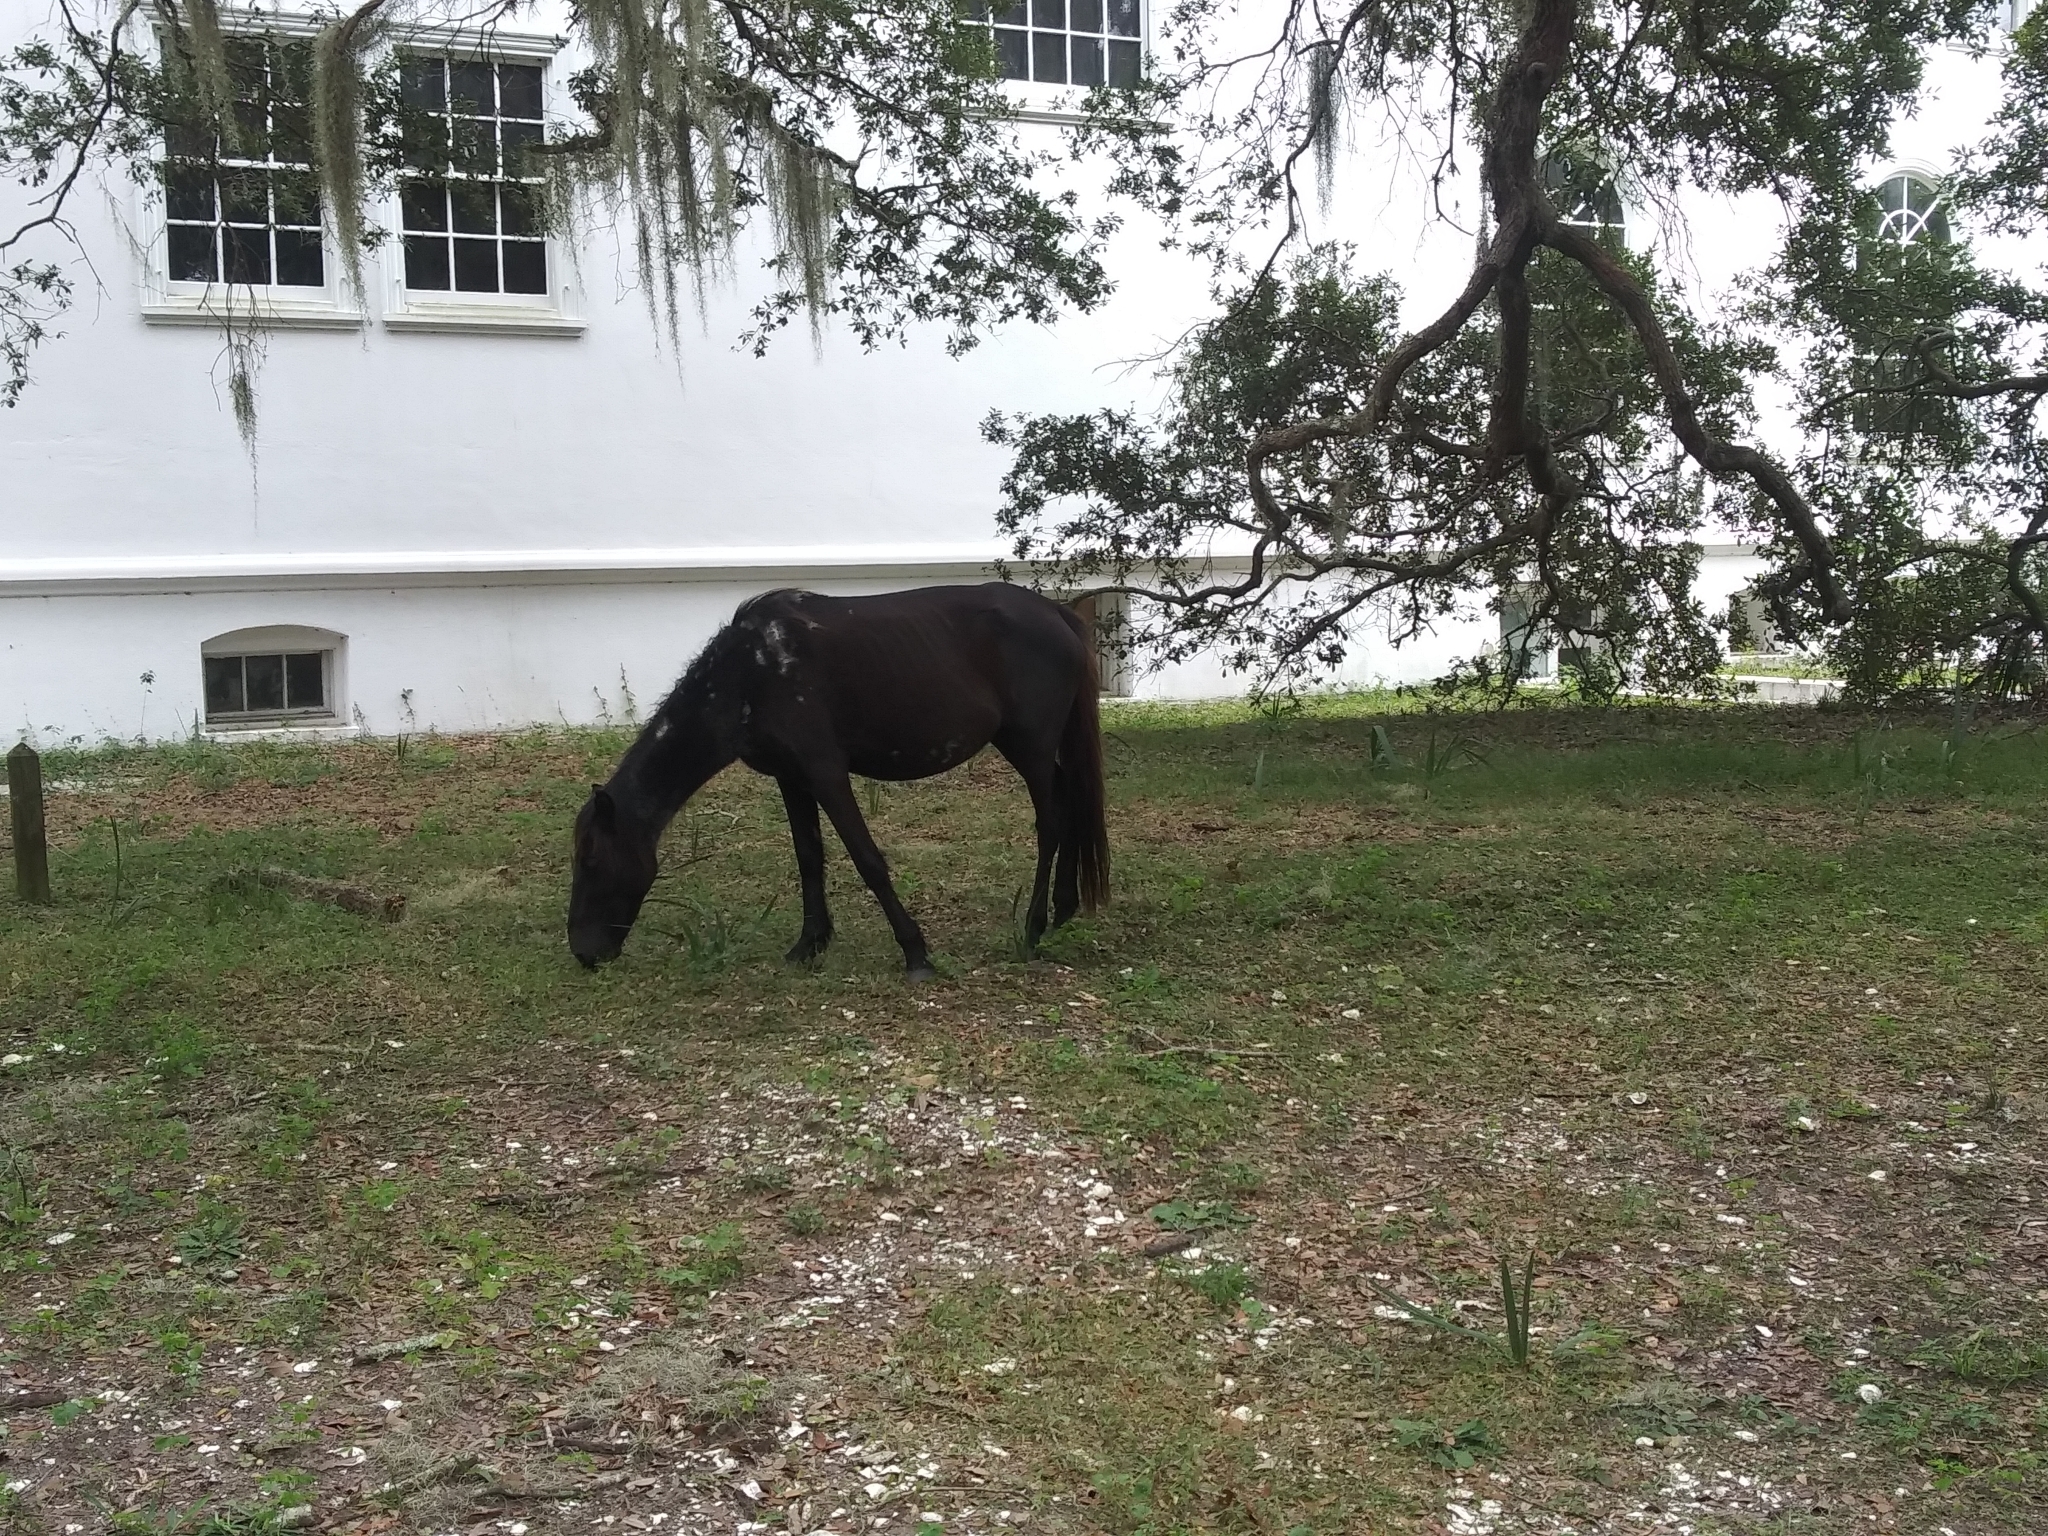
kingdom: Animalia
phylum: Chordata
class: Mammalia
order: Perissodactyla
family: Equidae
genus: Equus
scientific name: Equus caballus
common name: Horse
